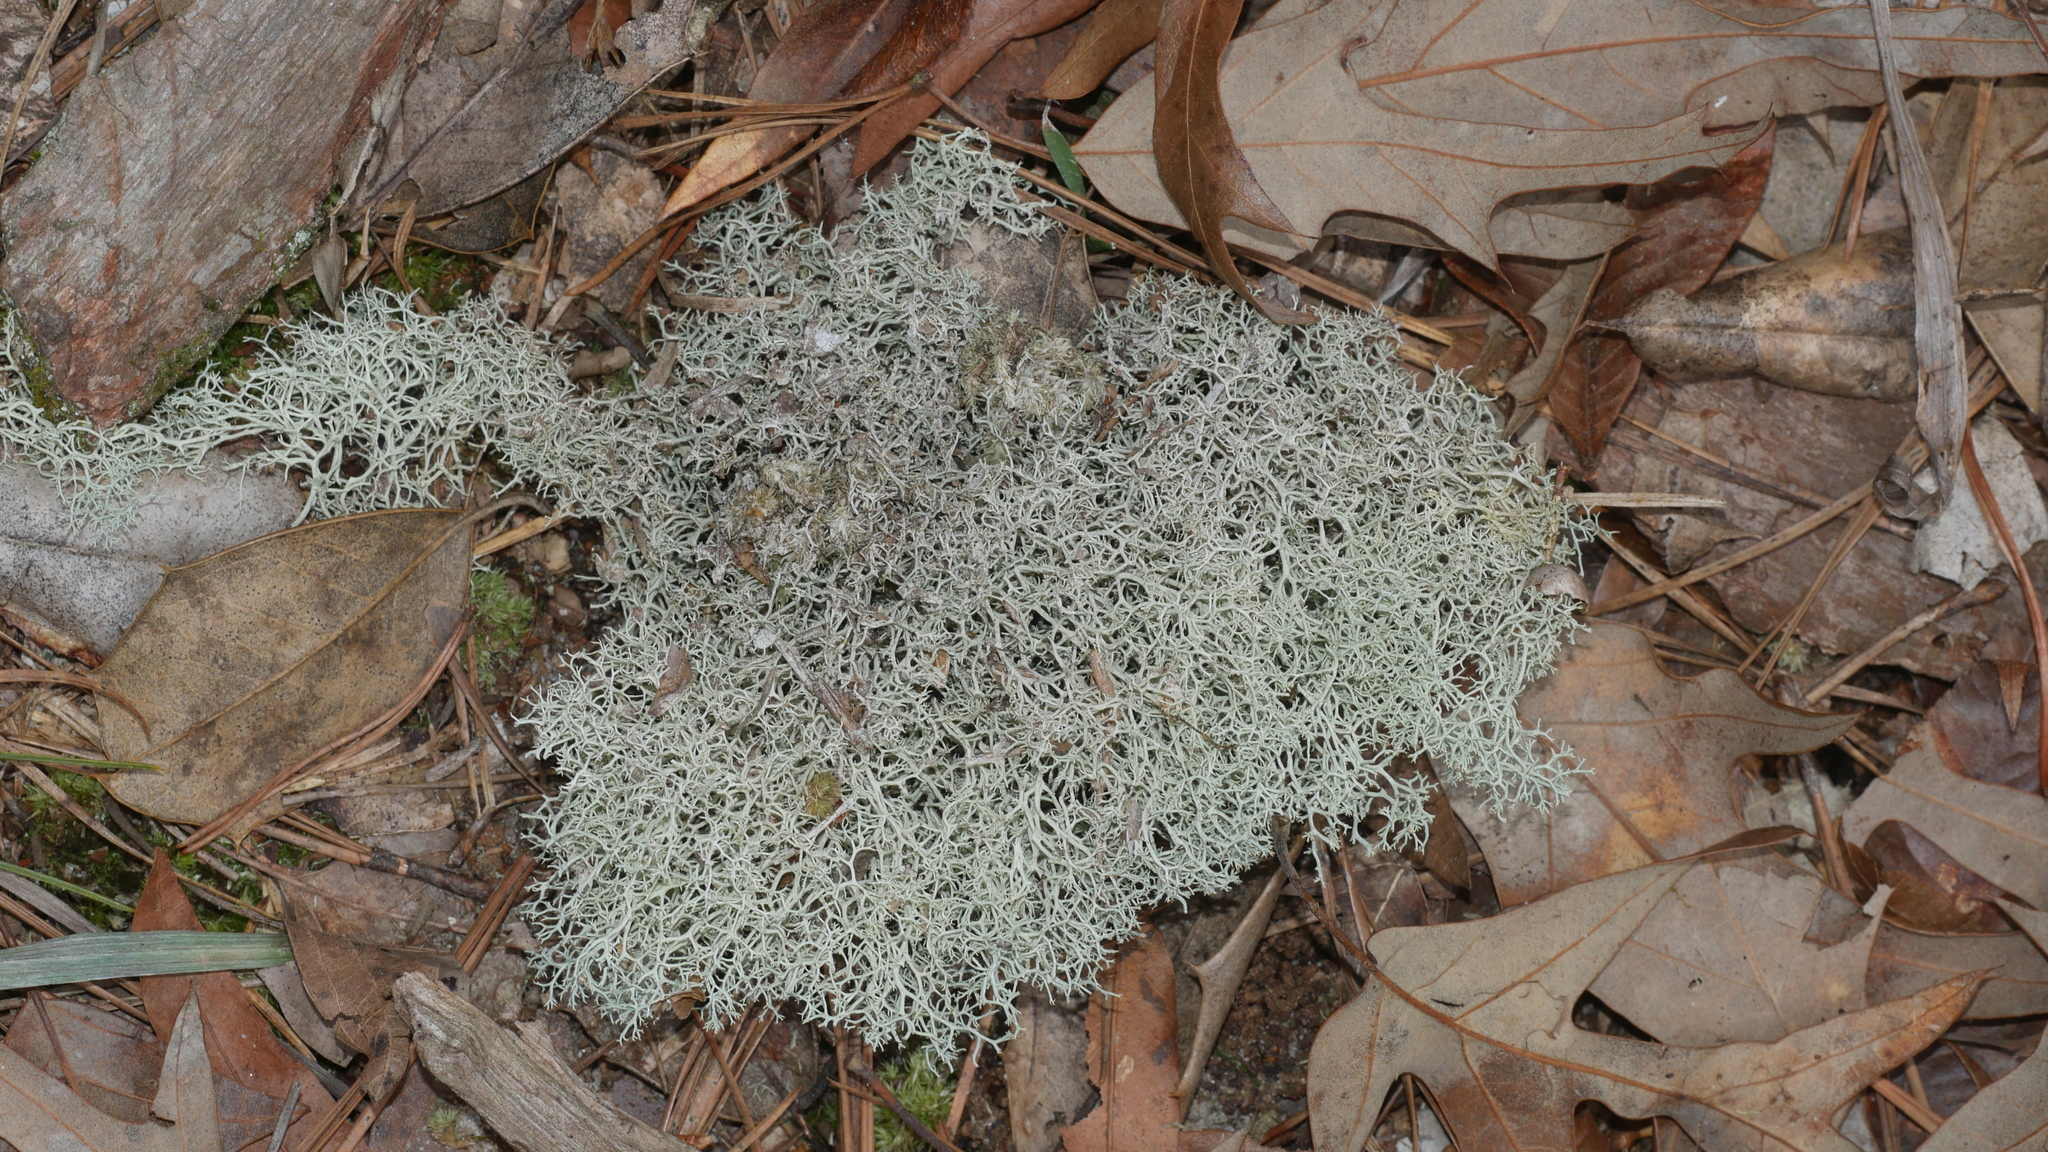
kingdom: Fungi
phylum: Ascomycota
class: Lecanoromycetes
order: Lecanorales
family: Cladoniaceae
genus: Cladonia
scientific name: Cladonia subtenuis
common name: Dixie reindeer lichen
